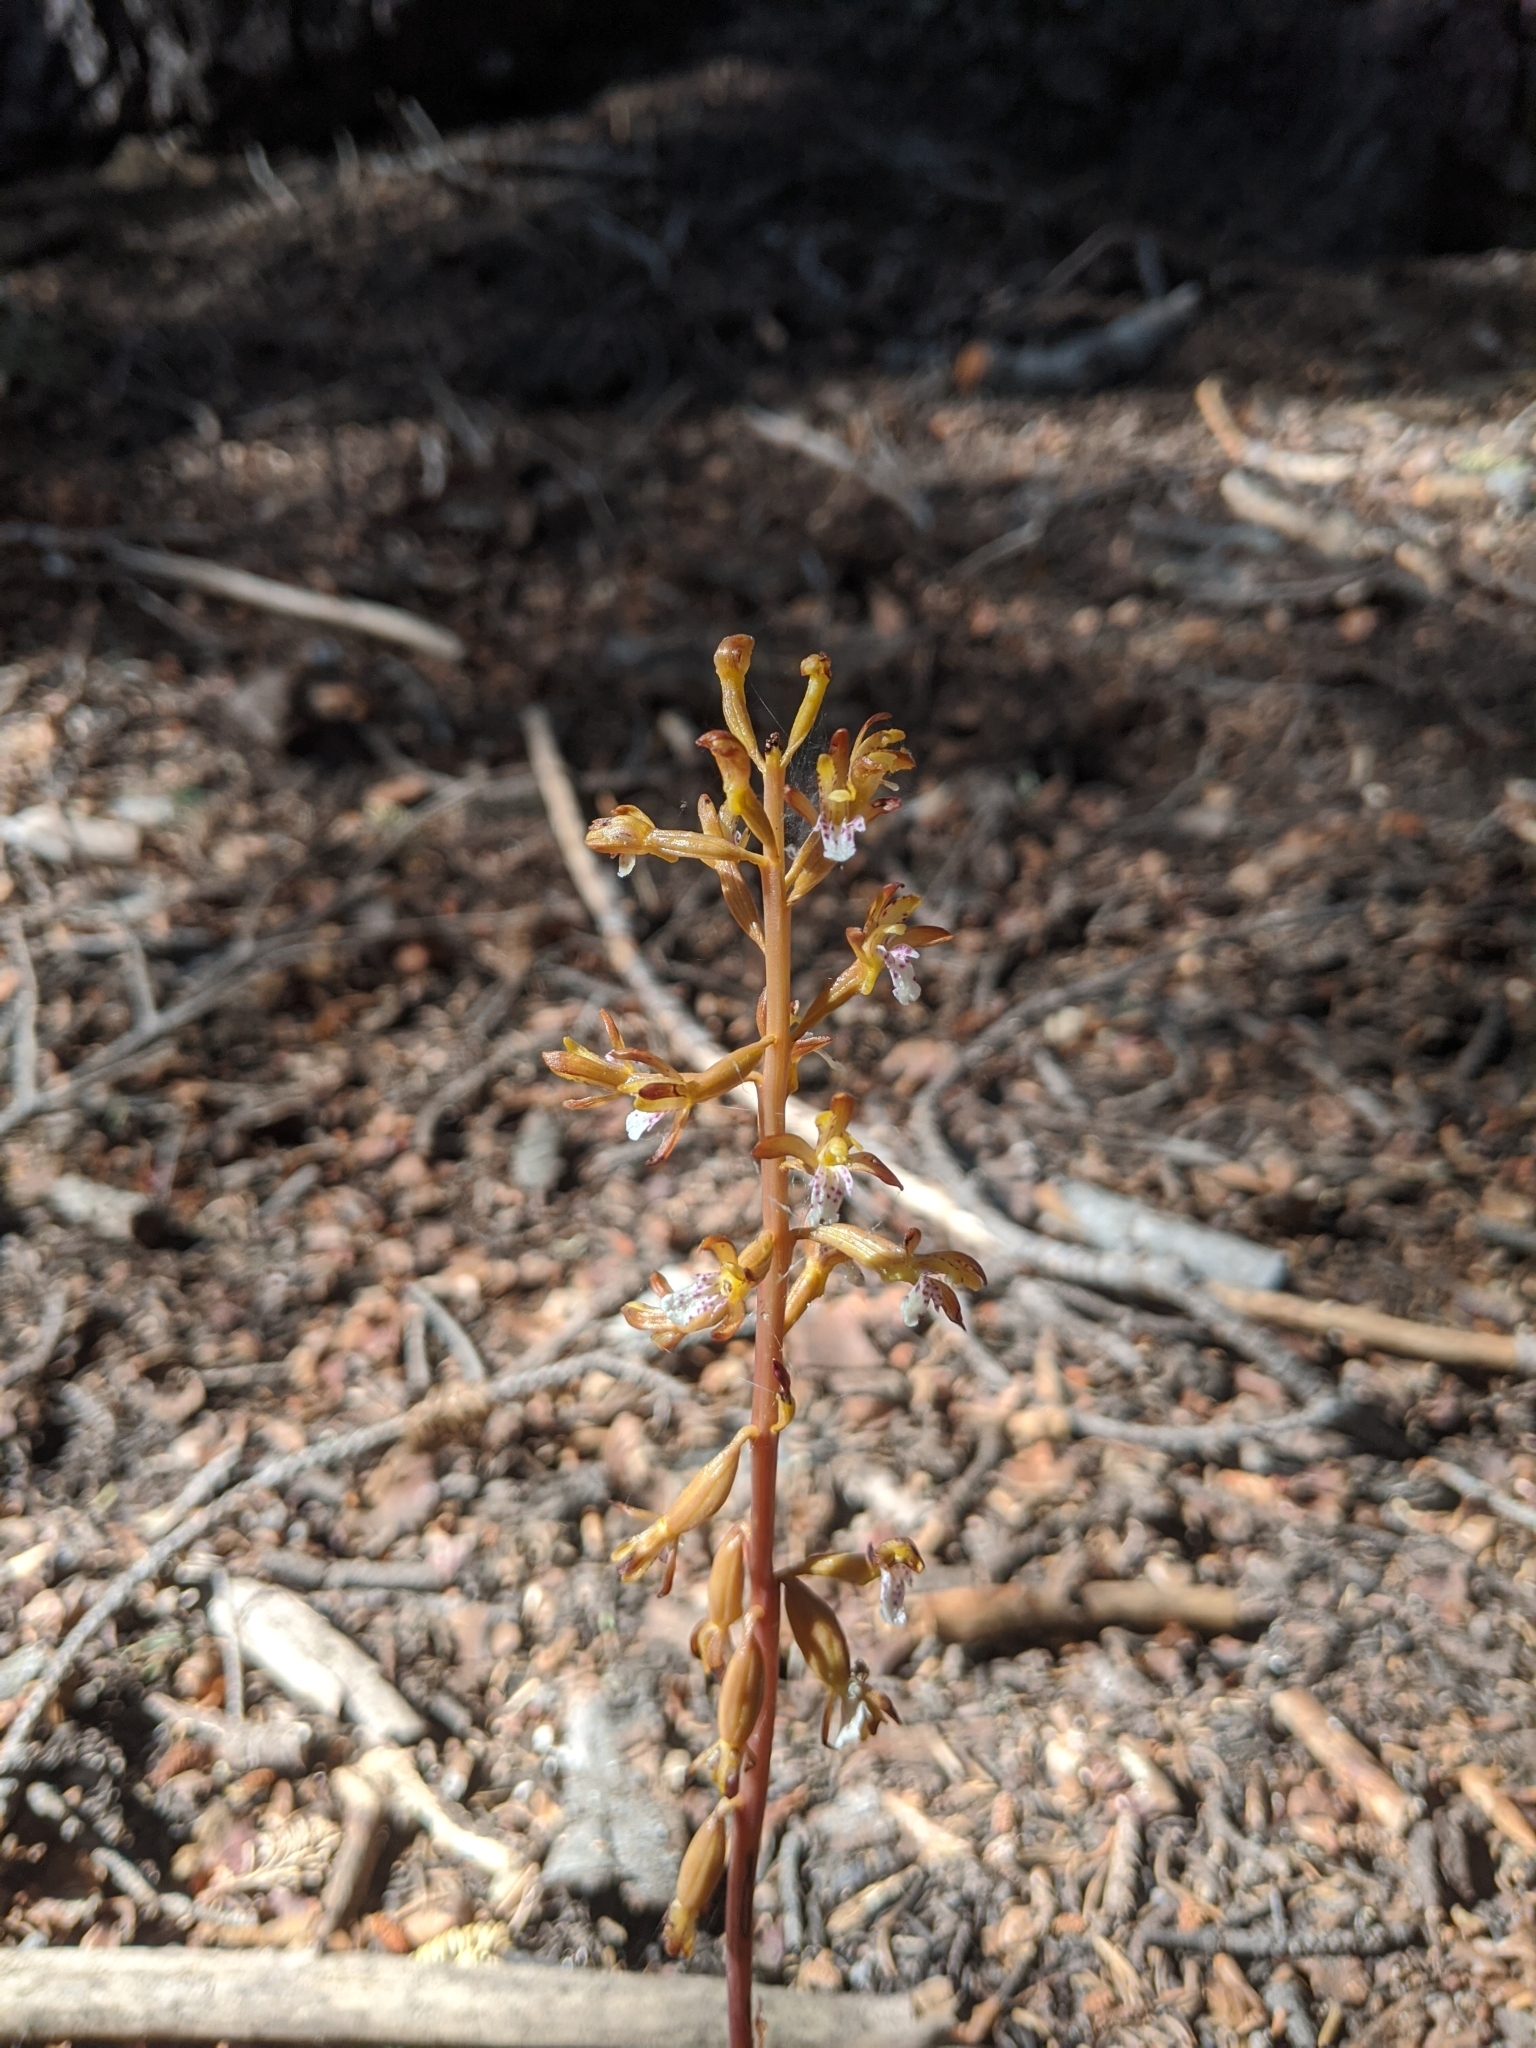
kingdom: Plantae
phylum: Tracheophyta
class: Liliopsida
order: Asparagales
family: Orchidaceae
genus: Corallorhiza
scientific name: Corallorhiza maculata
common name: Spotted coralroot
